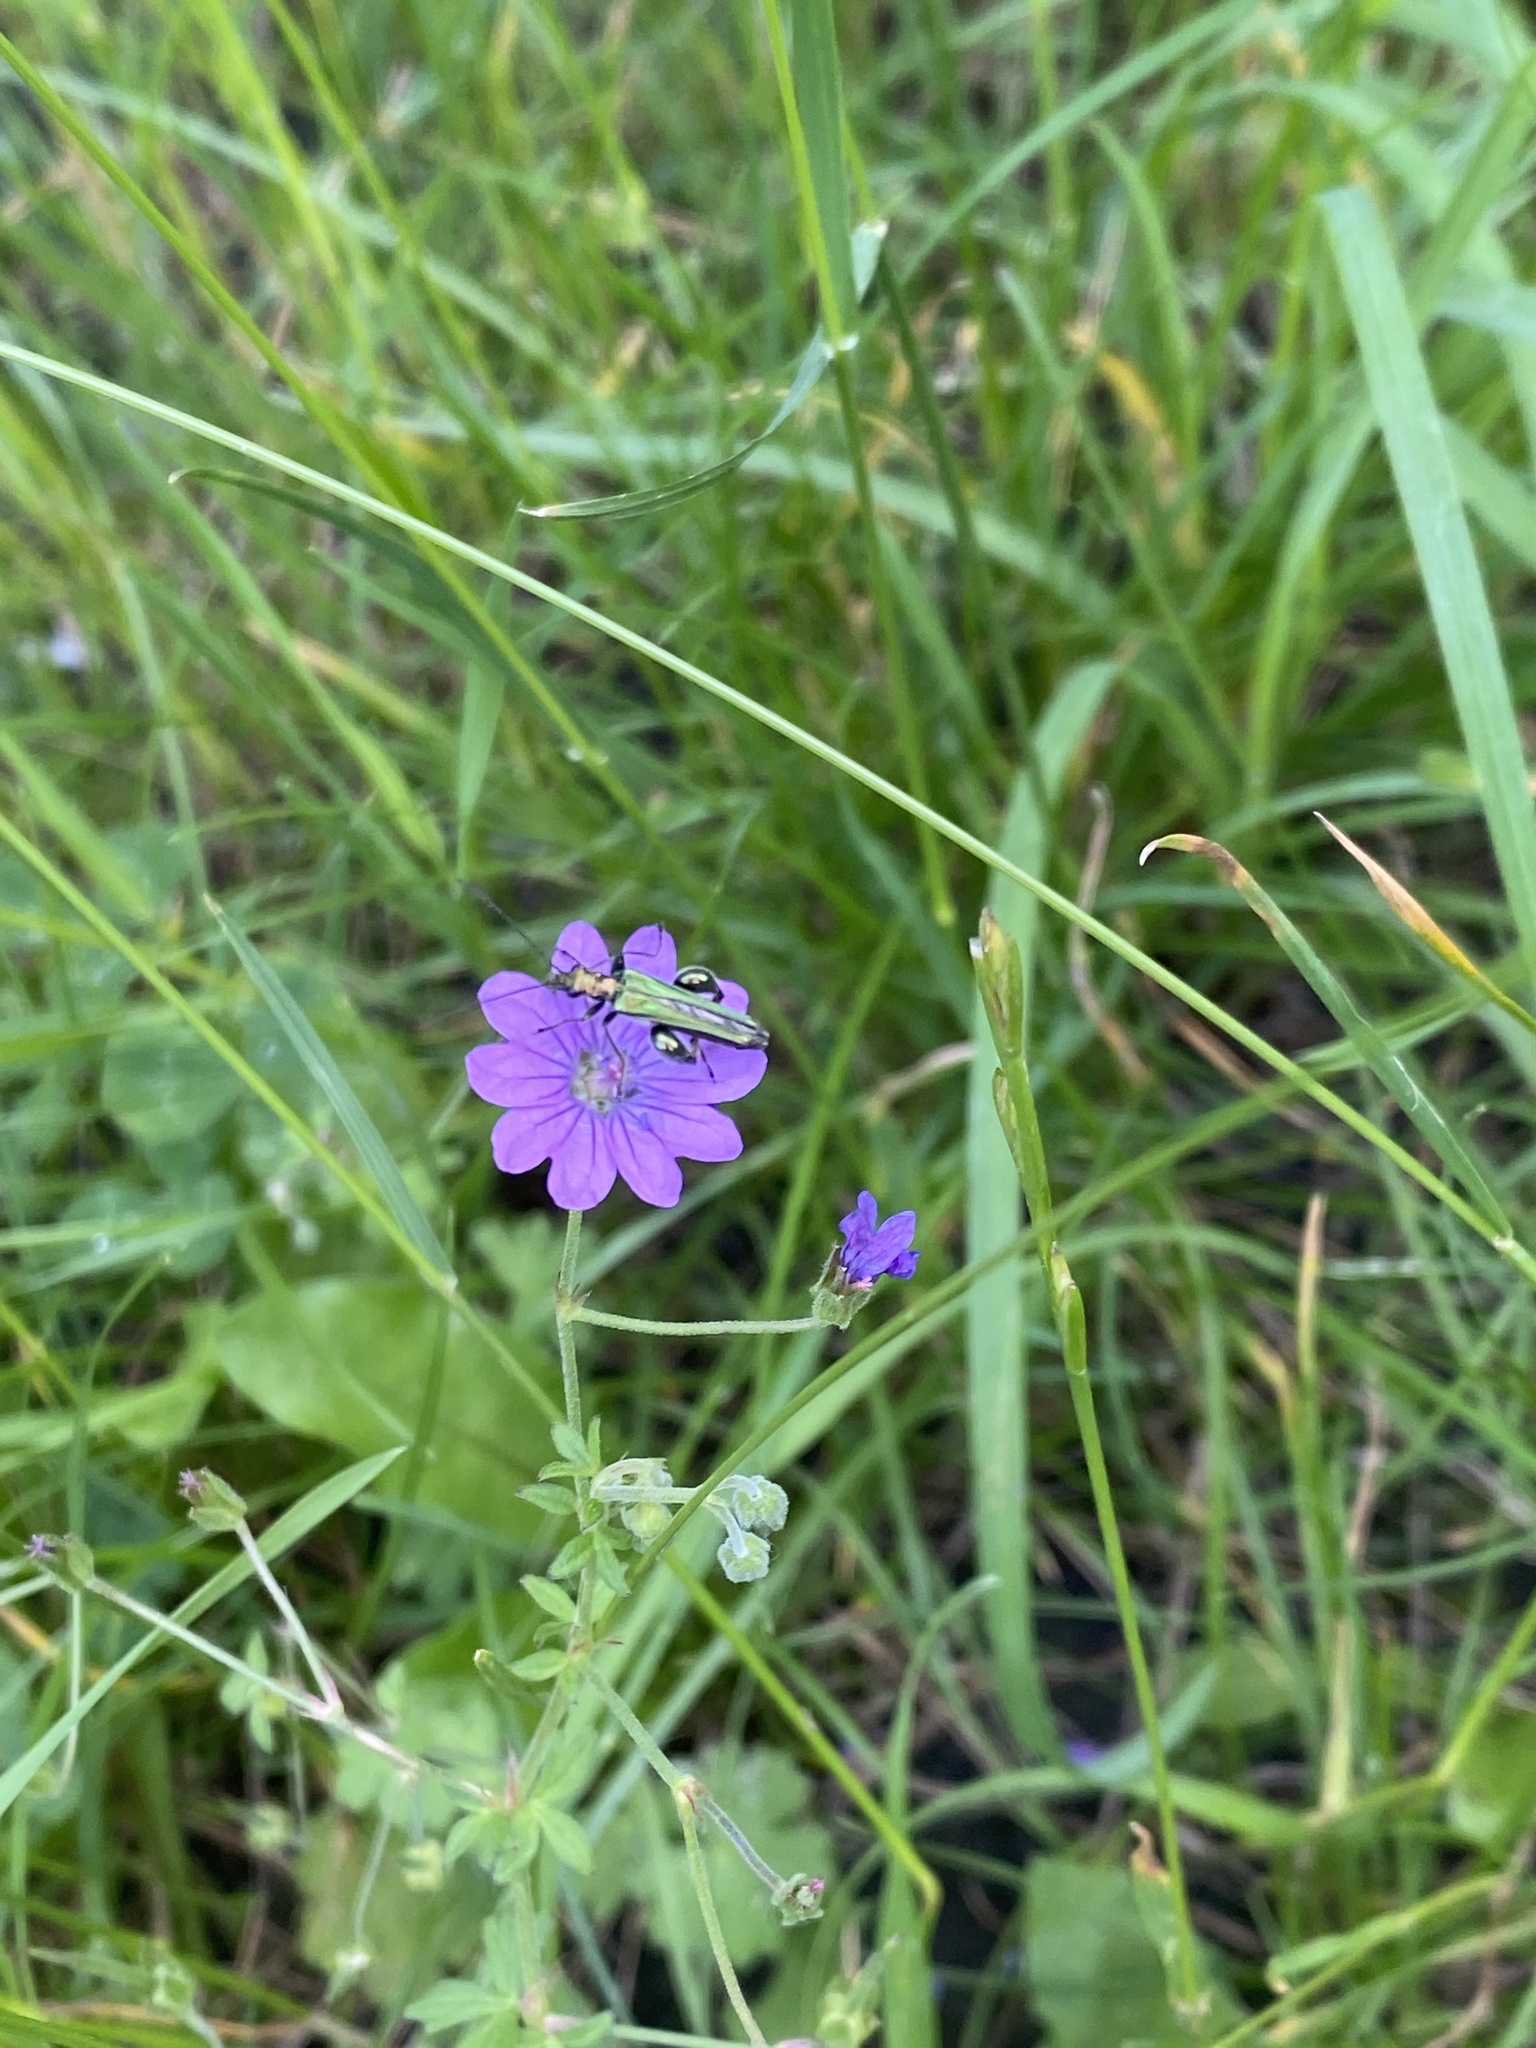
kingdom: Animalia
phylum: Arthropoda
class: Insecta
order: Coleoptera
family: Oedemeridae
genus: Oedemera
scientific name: Oedemera nobilis
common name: Swollen-thighed beetle
